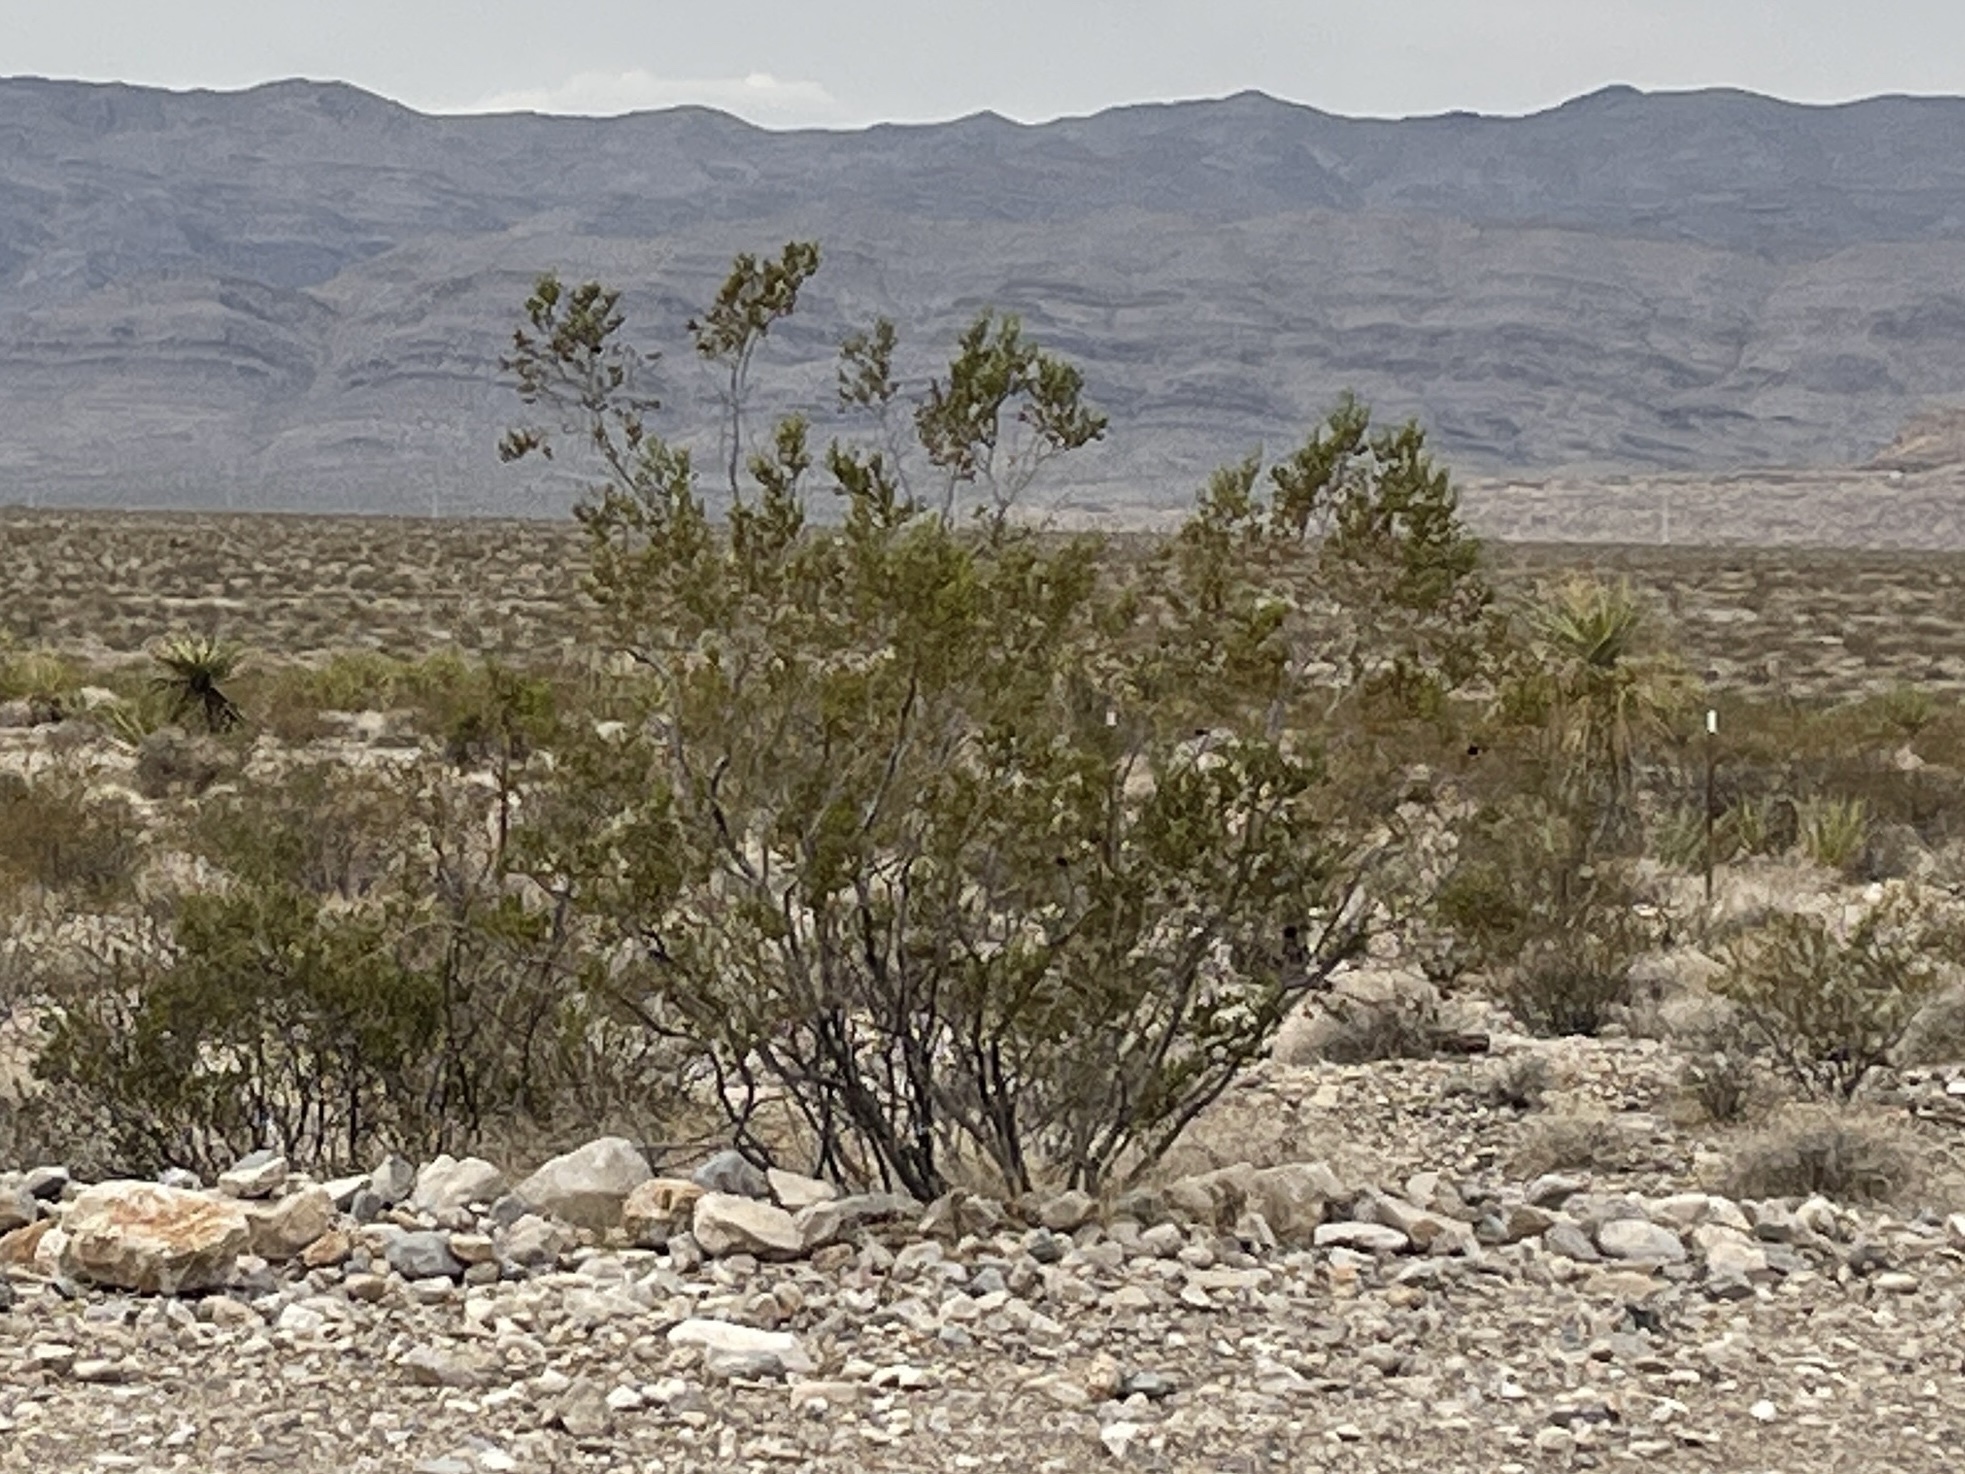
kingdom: Plantae
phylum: Tracheophyta
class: Magnoliopsida
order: Zygophyllales
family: Zygophyllaceae
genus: Larrea
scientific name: Larrea tridentata
